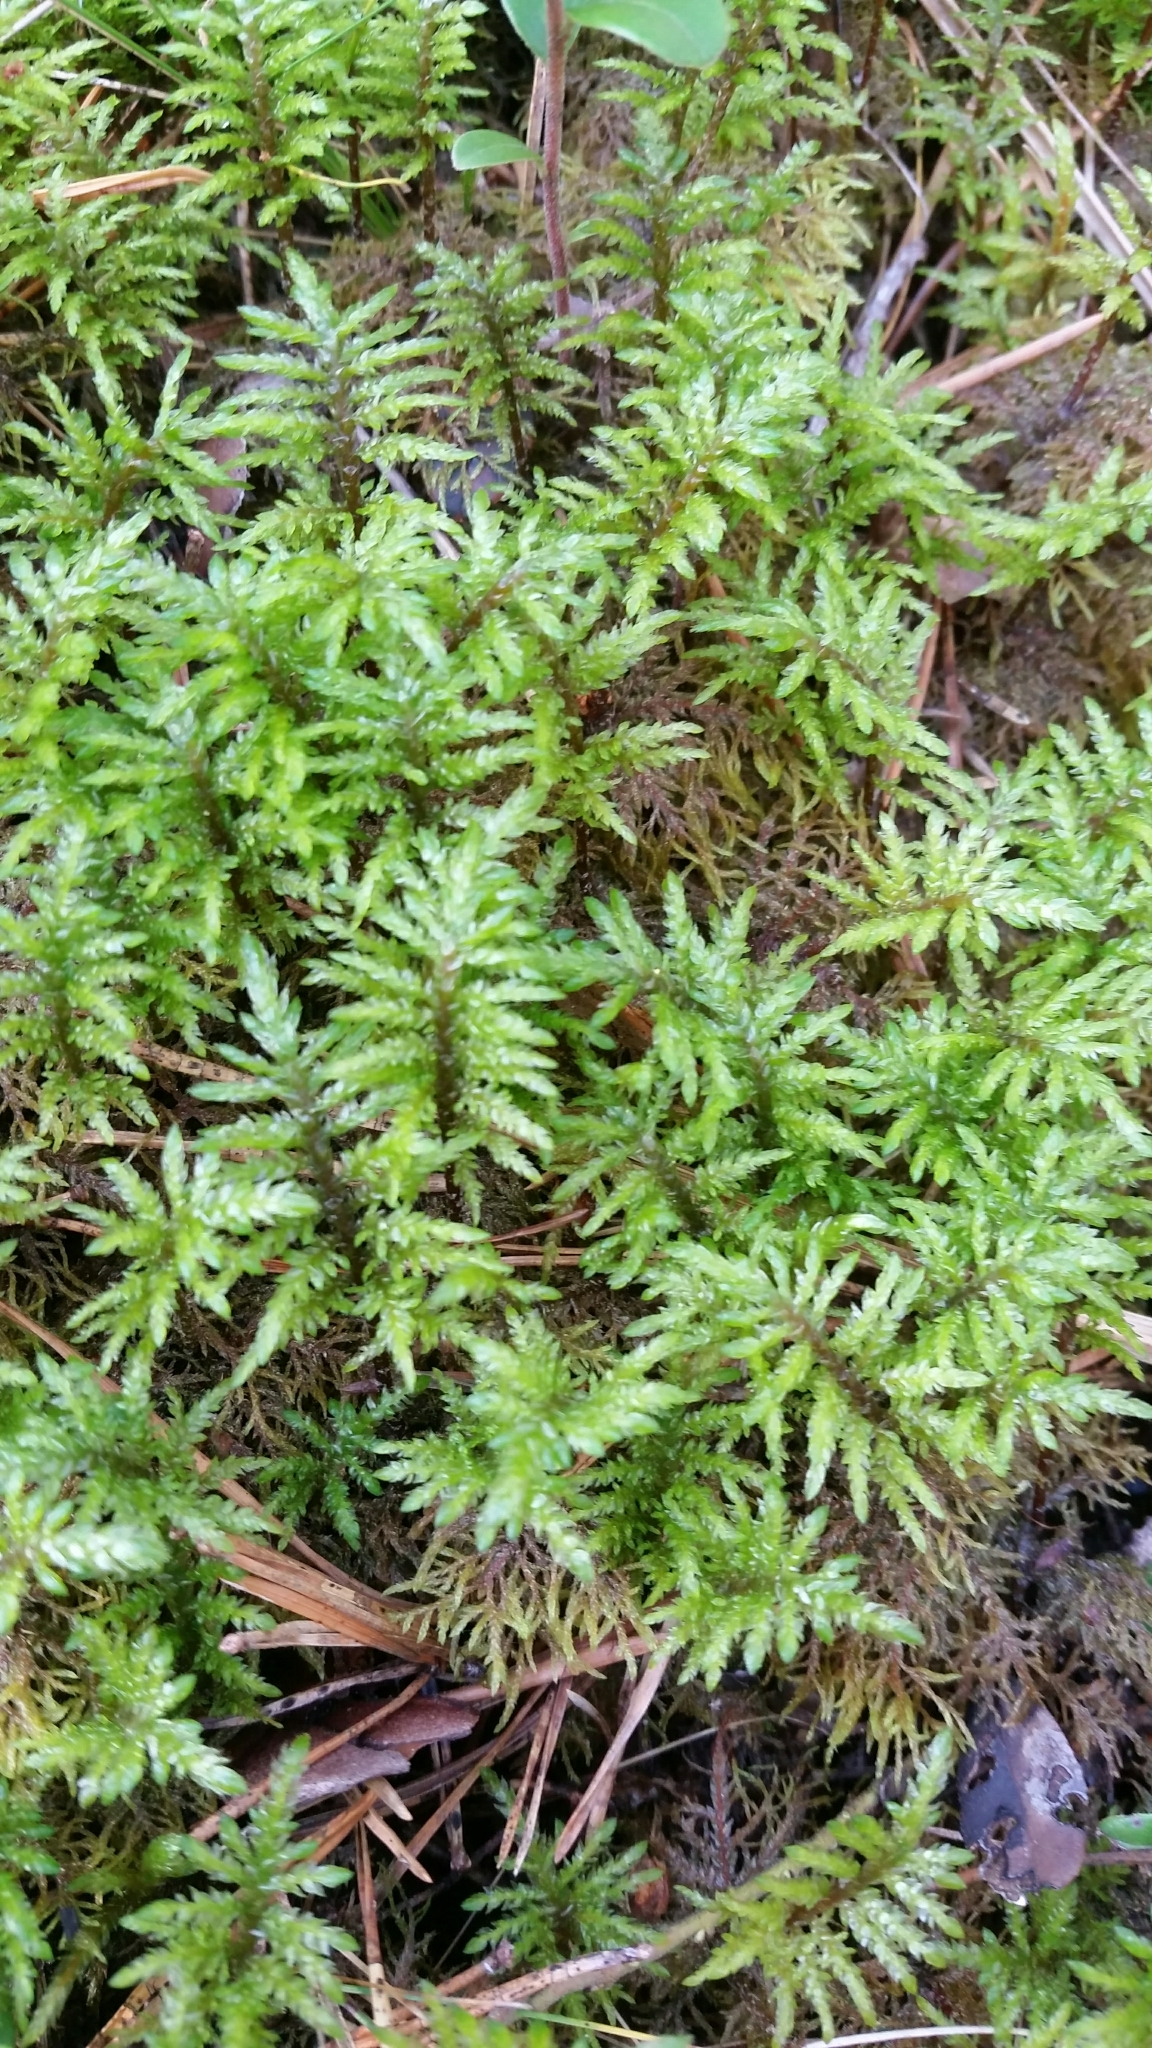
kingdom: Plantae
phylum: Bryophyta
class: Bryopsida
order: Hypnales
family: Hylocomiaceae
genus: Hylocomium
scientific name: Hylocomium splendens
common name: Stairstep moss
